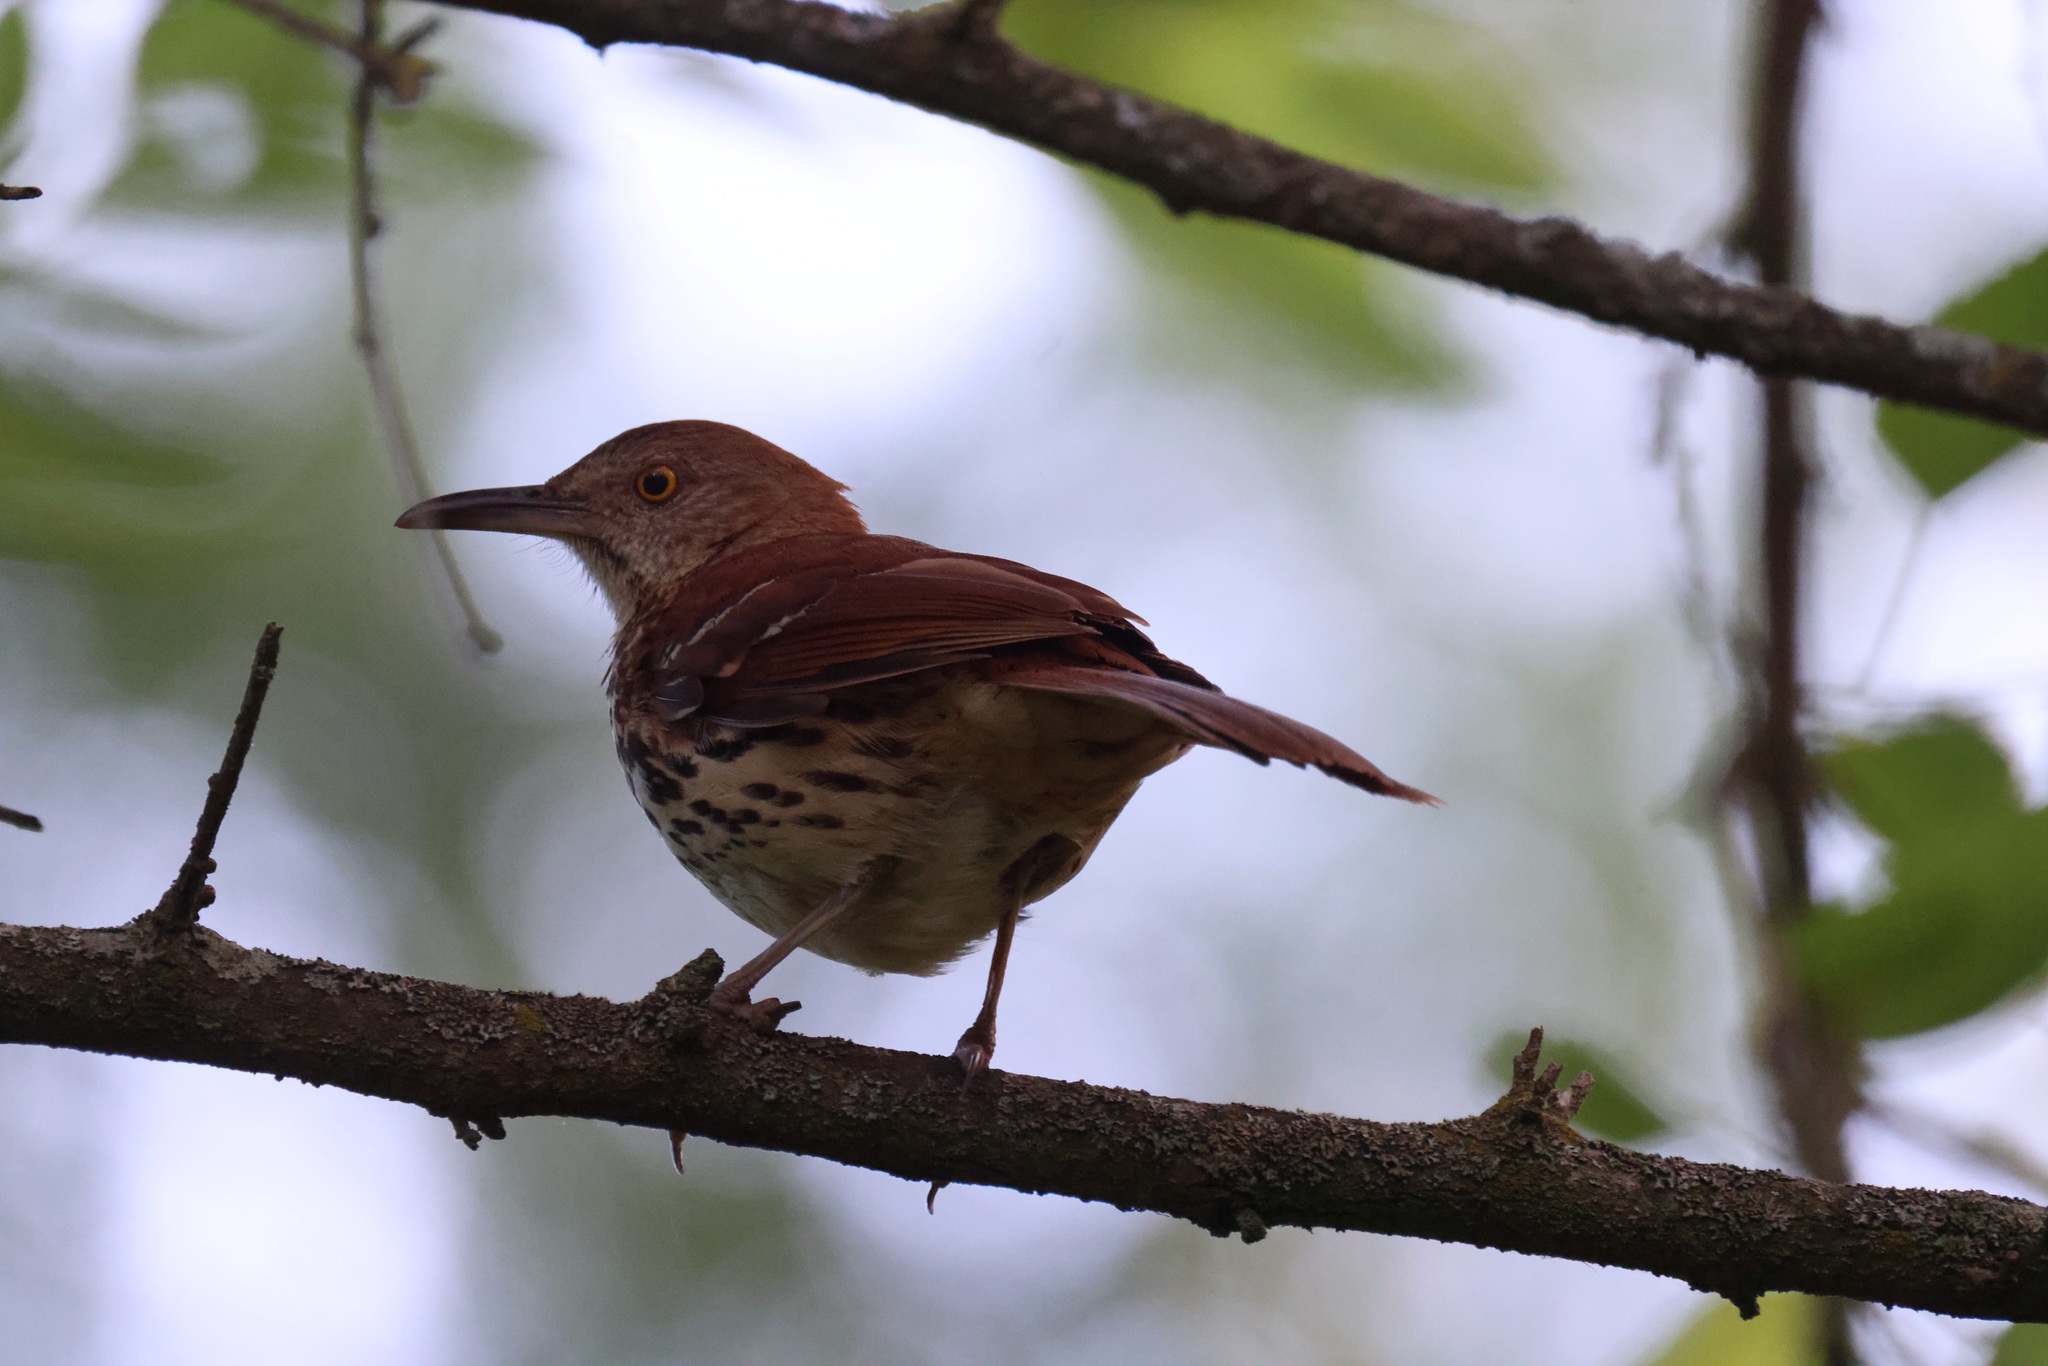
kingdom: Animalia
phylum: Chordata
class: Aves
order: Passeriformes
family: Mimidae
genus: Toxostoma
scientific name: Toxostoma rufum
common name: Brown thrasher
